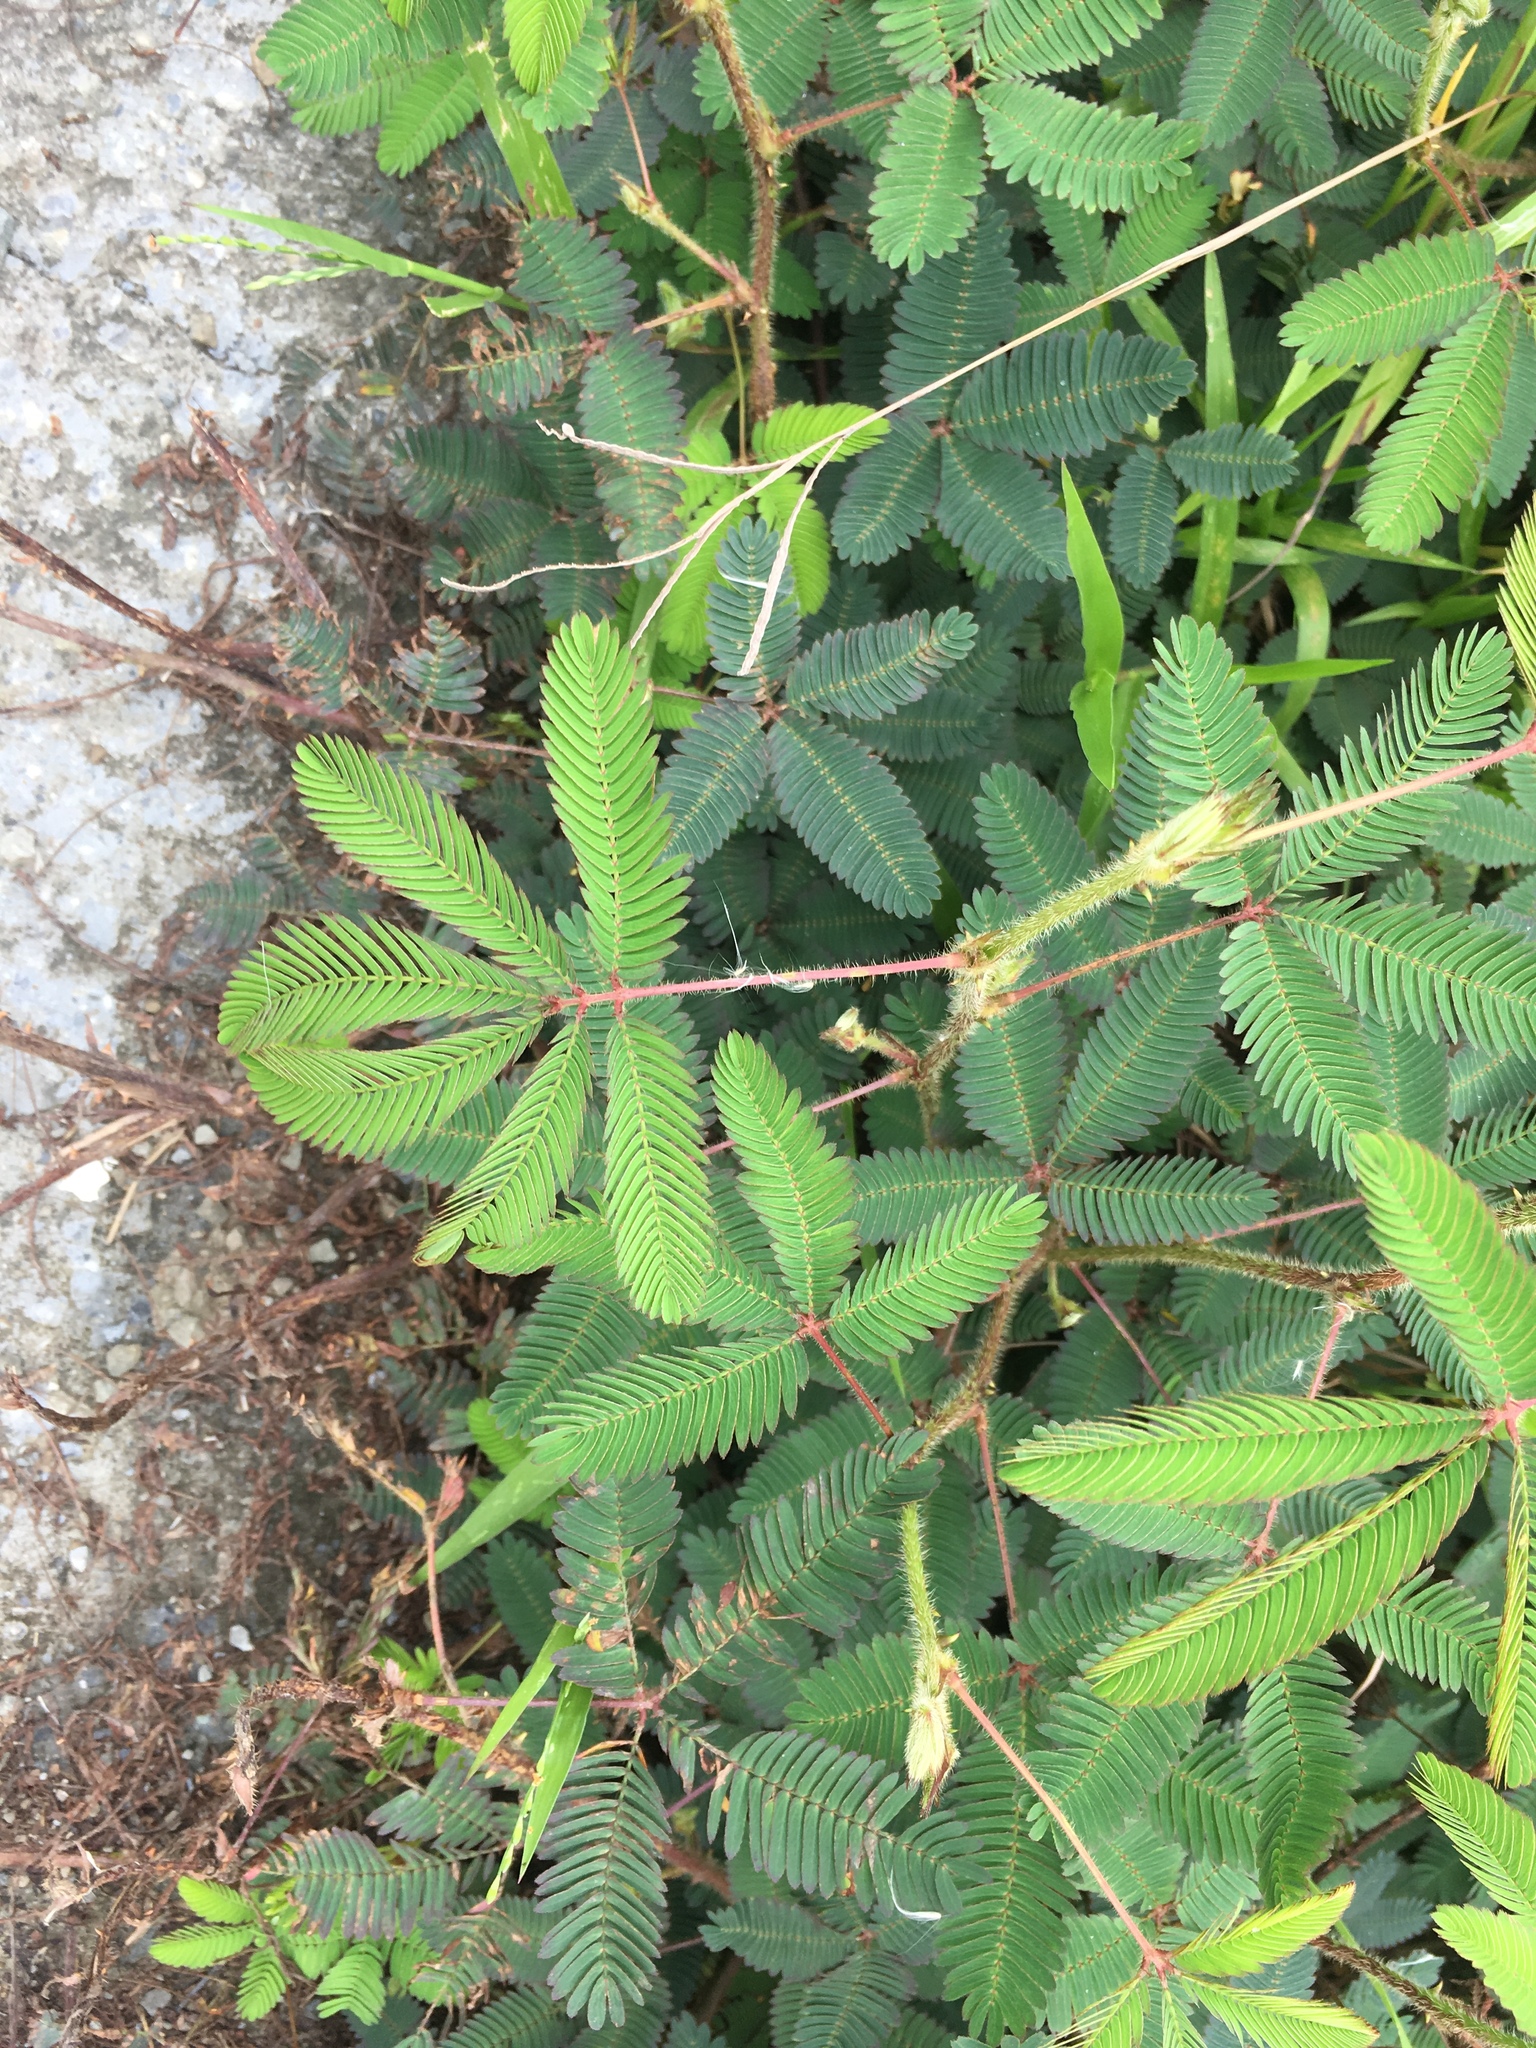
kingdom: Plantae
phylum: Tracheophyta
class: Magnoliopsida
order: Fabales
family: Fabaceae
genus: Mimosa
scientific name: Mimosa pudica
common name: Sensitive plant
